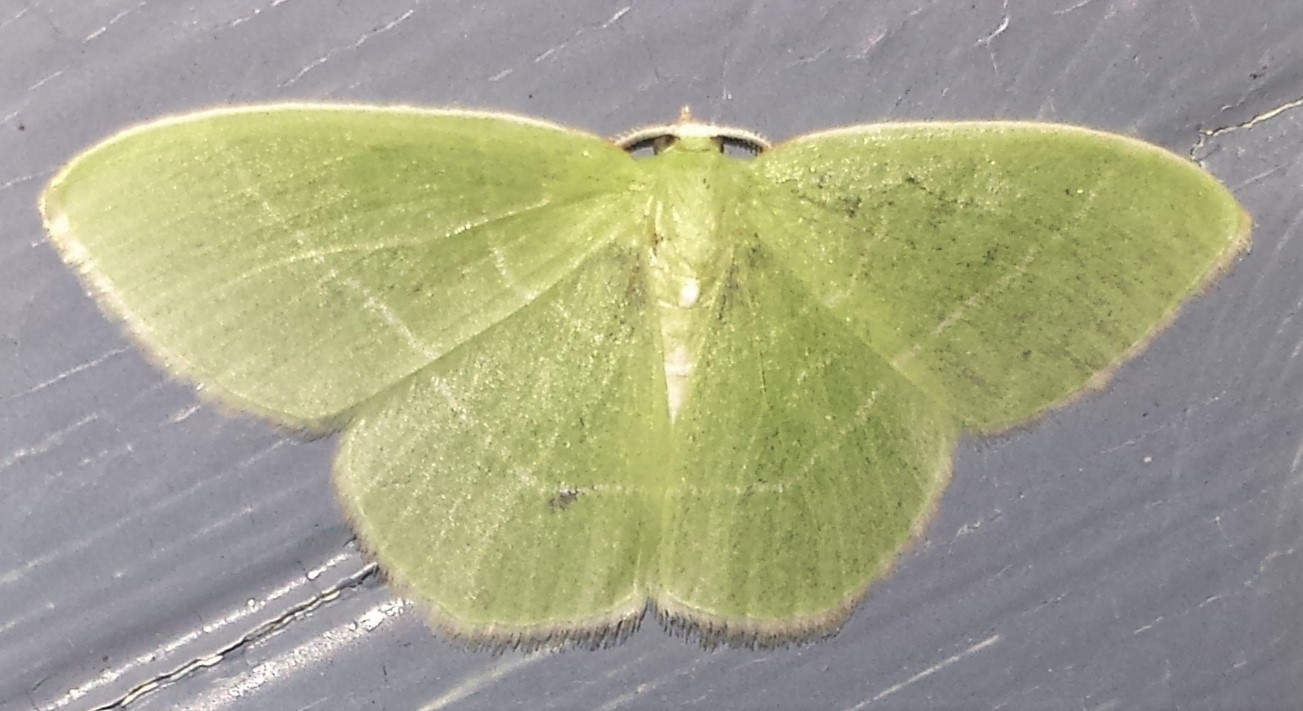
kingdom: Animalia
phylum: Arthropoda
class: Insecta
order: Lepidoptera
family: Geometridae
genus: Nemoria
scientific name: Nemoria mimosaria
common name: White-fringed emerald
